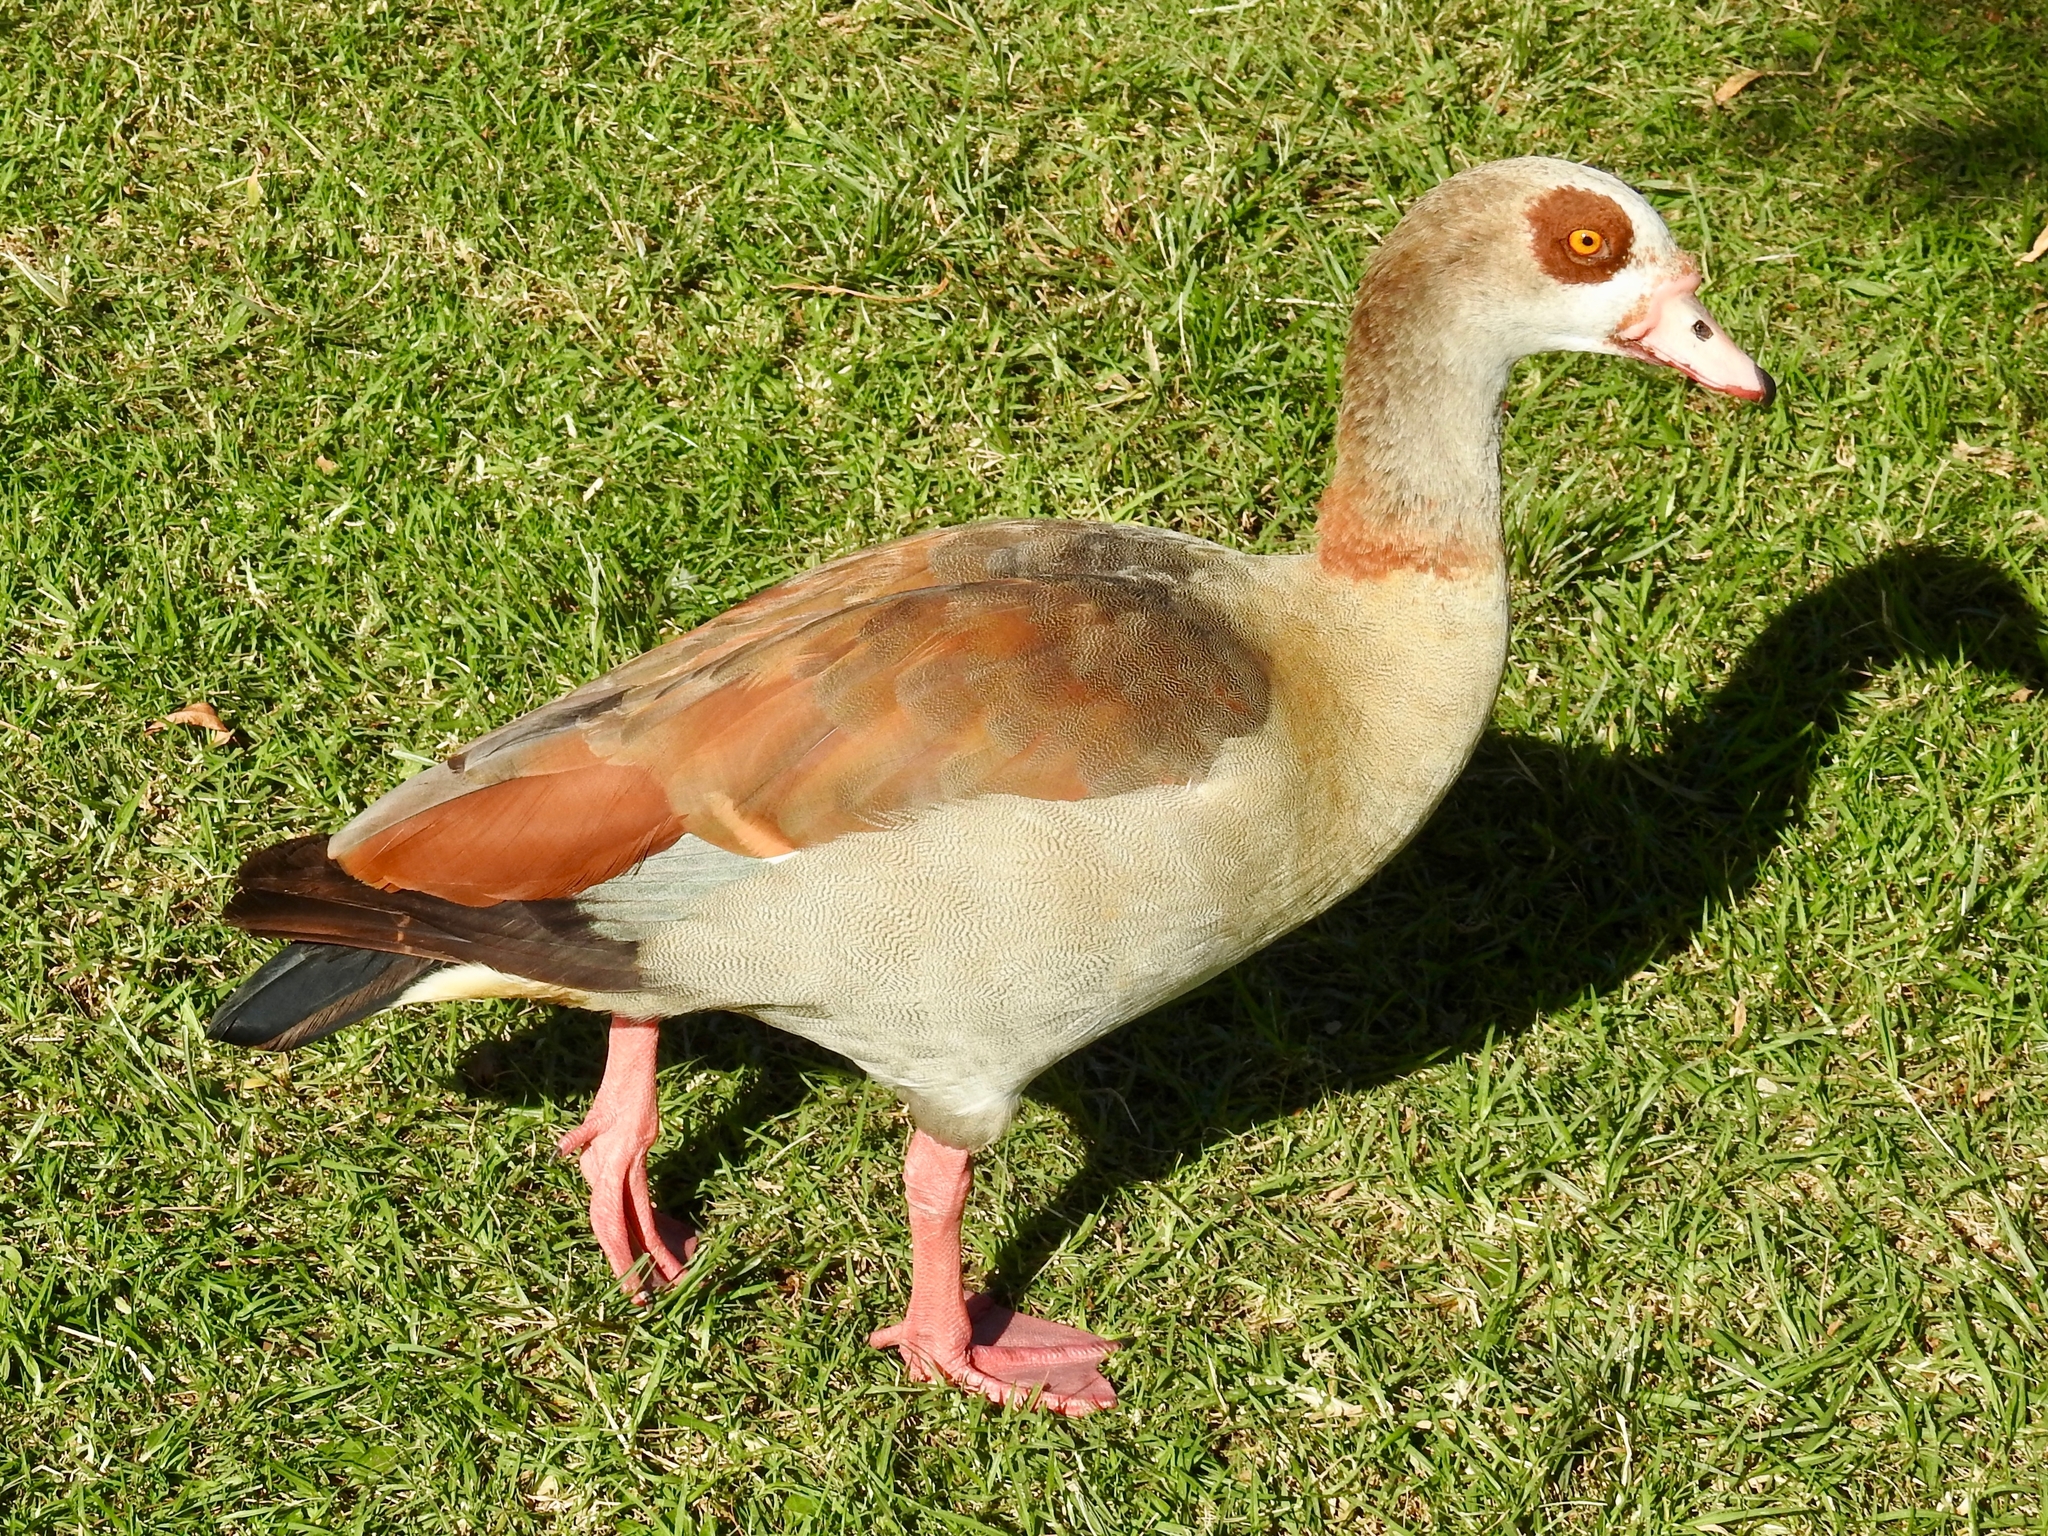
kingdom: Animalia
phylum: Chordata
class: Aves
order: Anseriformes
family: Anatidae
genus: Alopochen
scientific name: Alopochen aegyptiaca
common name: Egyptian goose
